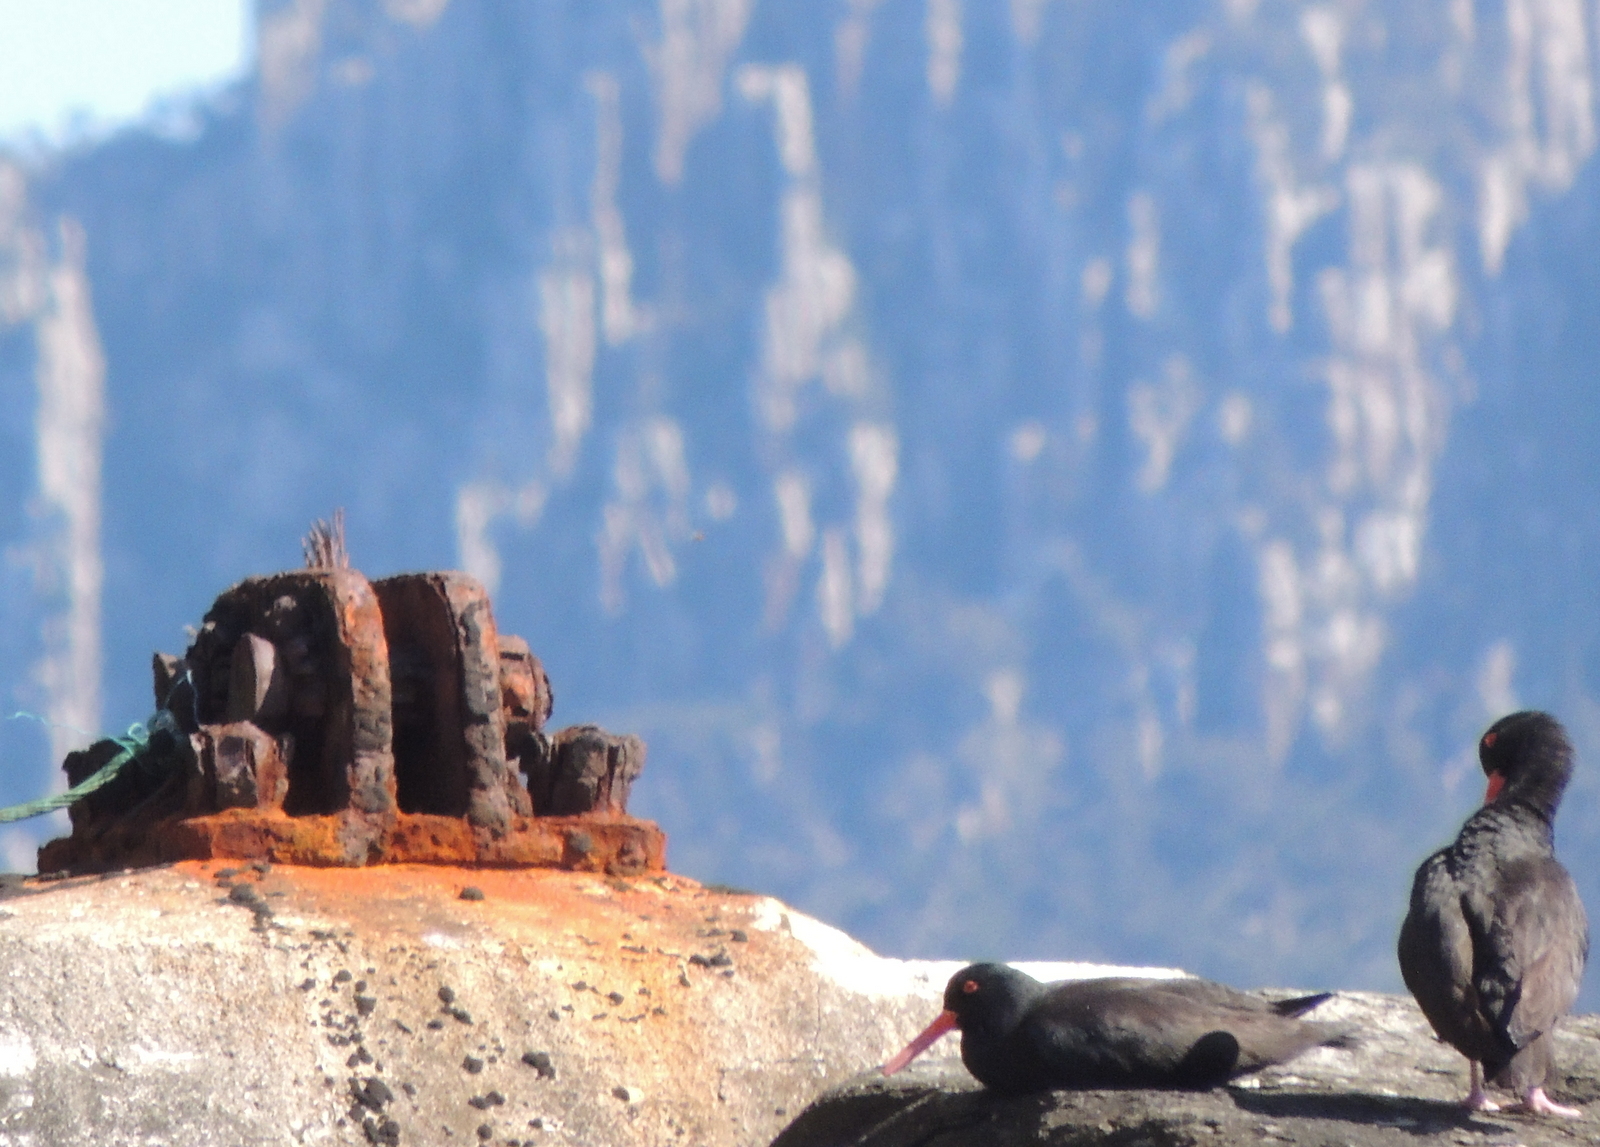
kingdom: Animalia
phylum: Chordata
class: Aves
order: Charadriiformes
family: Haematopodidae
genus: Haematopus
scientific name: Haematopus fuliginosus
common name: Sooty oystercatcher
